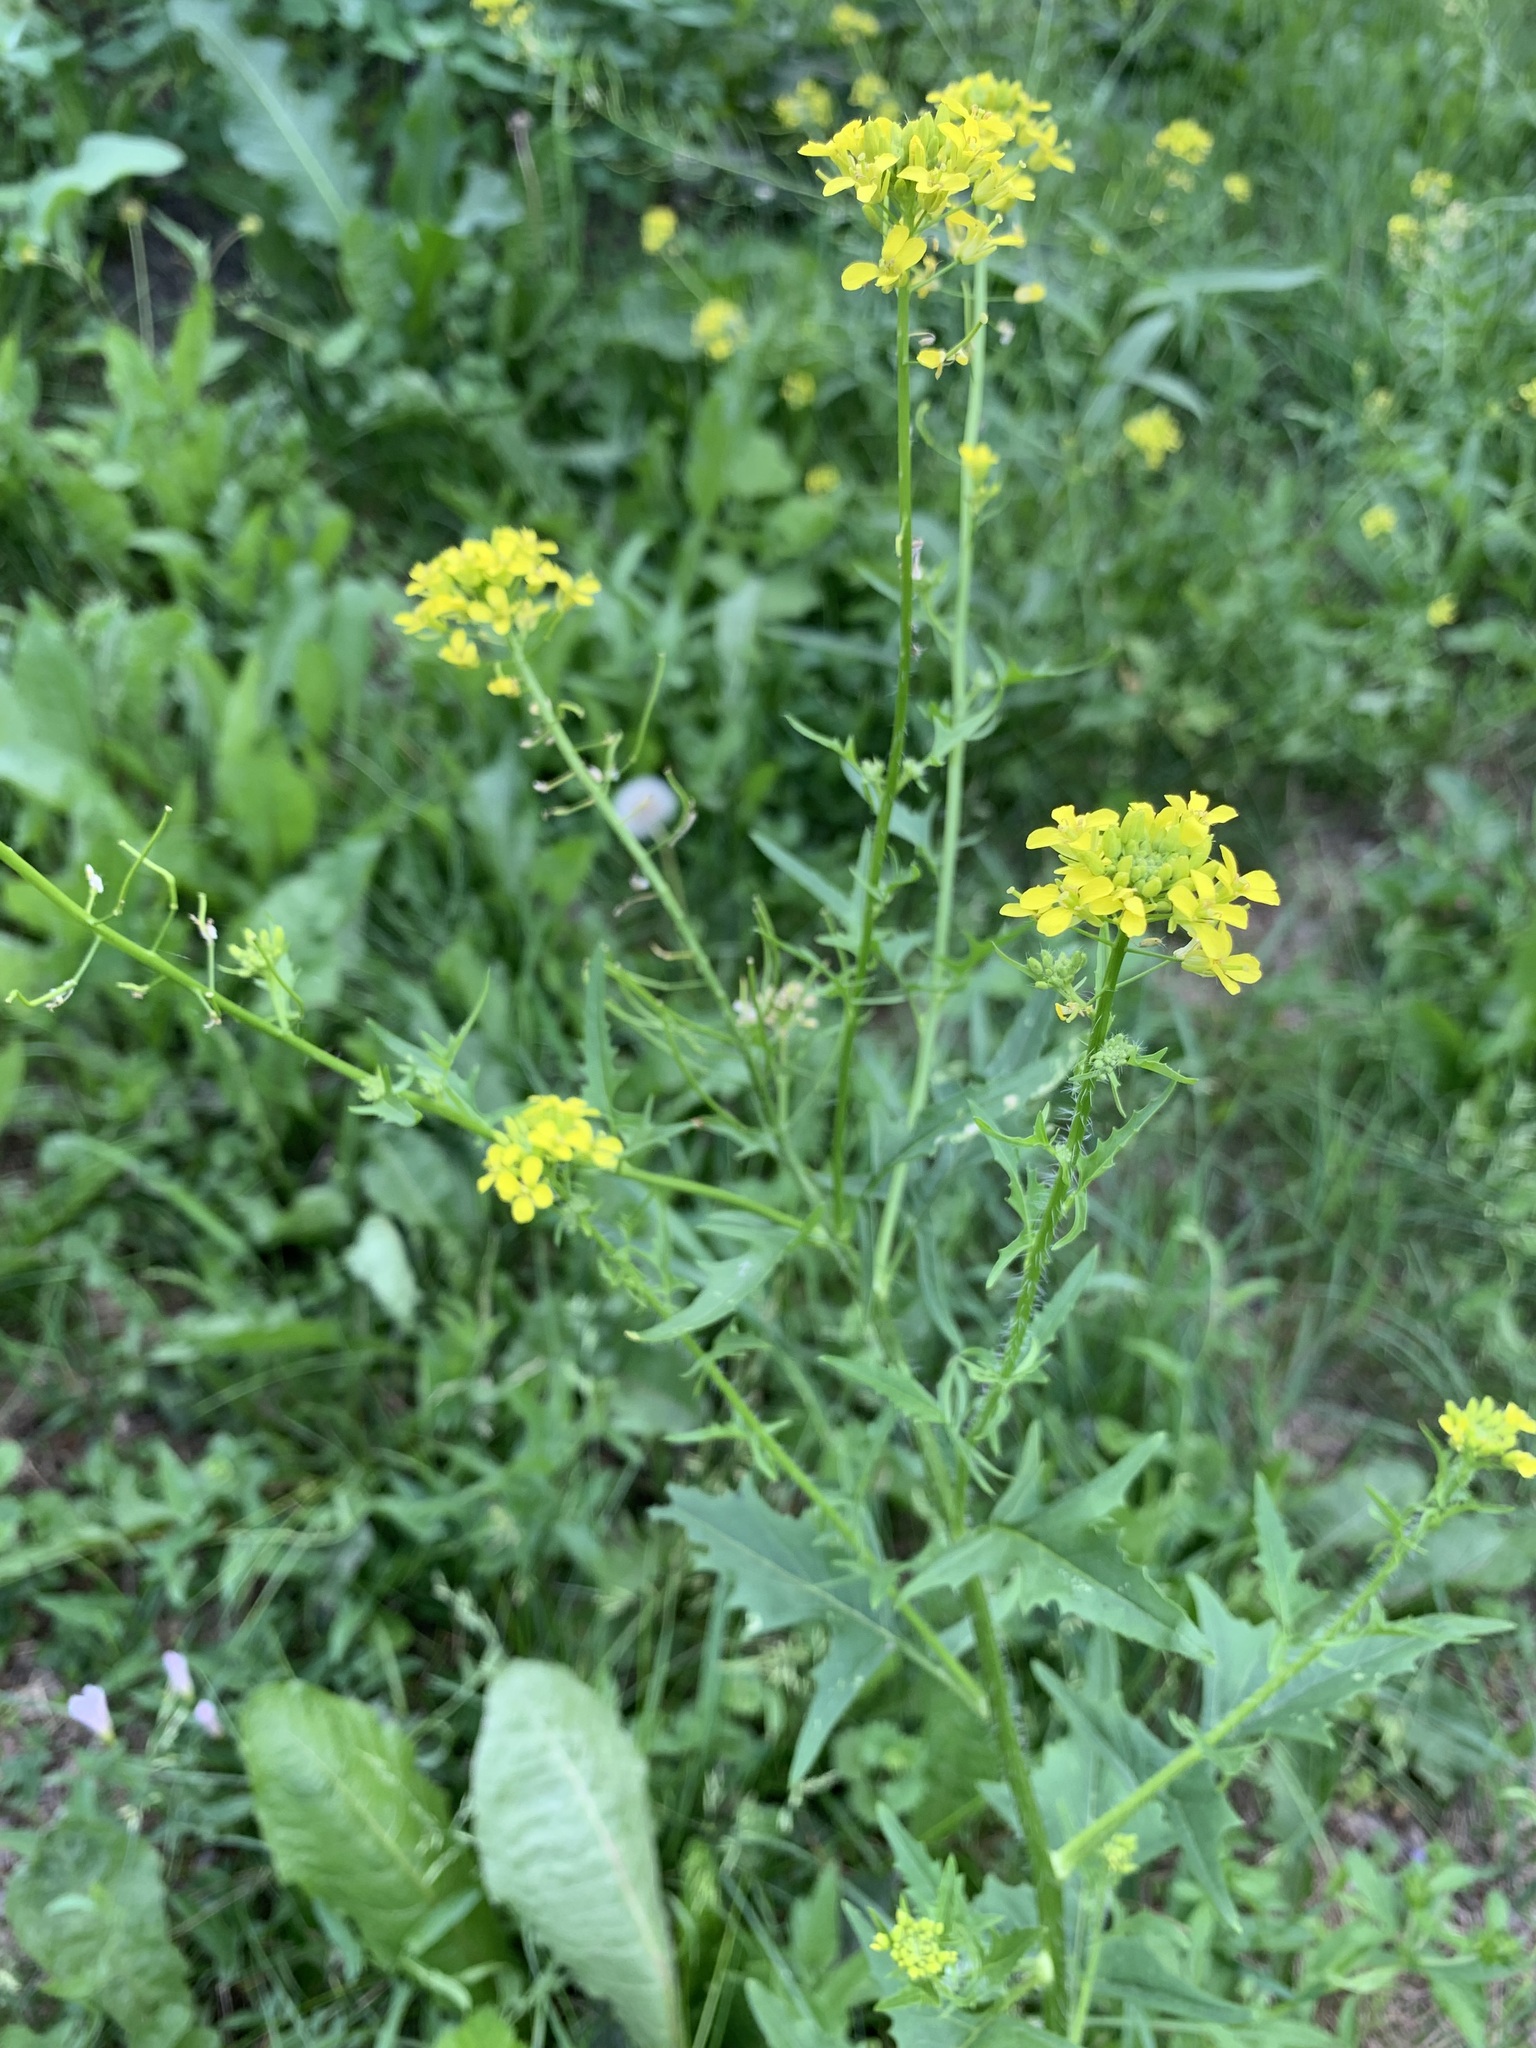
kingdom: Plantae
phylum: Tracheophyta
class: Magnoliopsida
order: Brassicales
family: Brassicaceae
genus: Sisymbrium
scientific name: Sisymbrium loeselii
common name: False london-rocket
